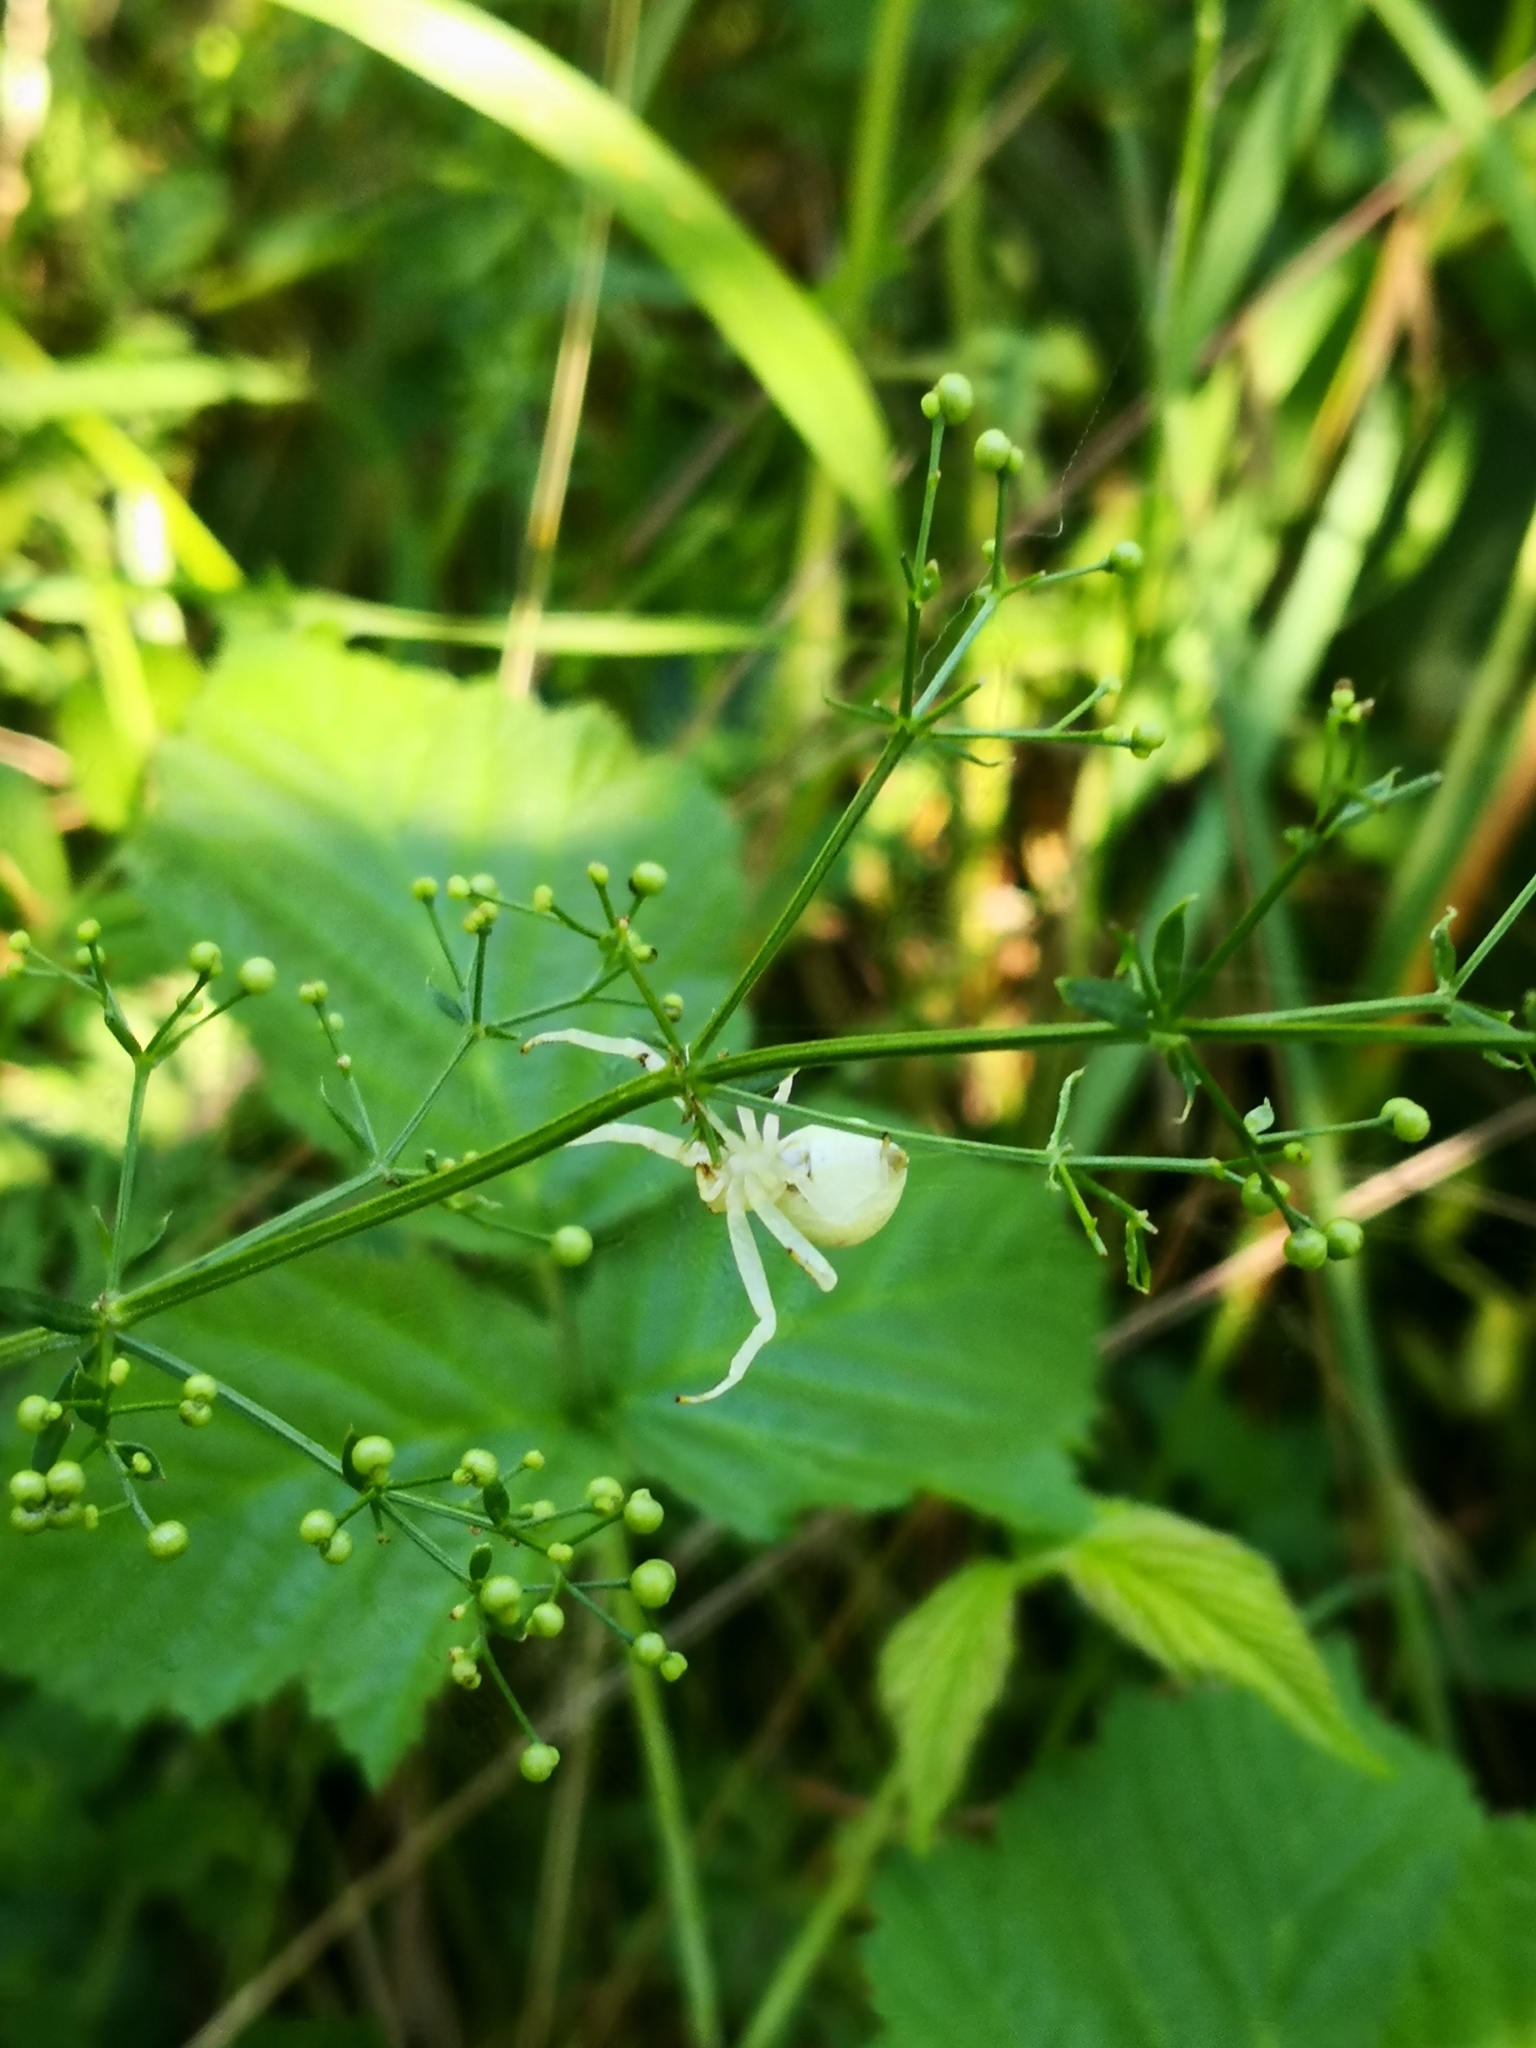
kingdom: Animalia
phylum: Arthropoda
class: Arachnida
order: Araneae
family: Thomisidae
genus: Misumena
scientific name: Misumena vatia
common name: Goldenrod crab spider
